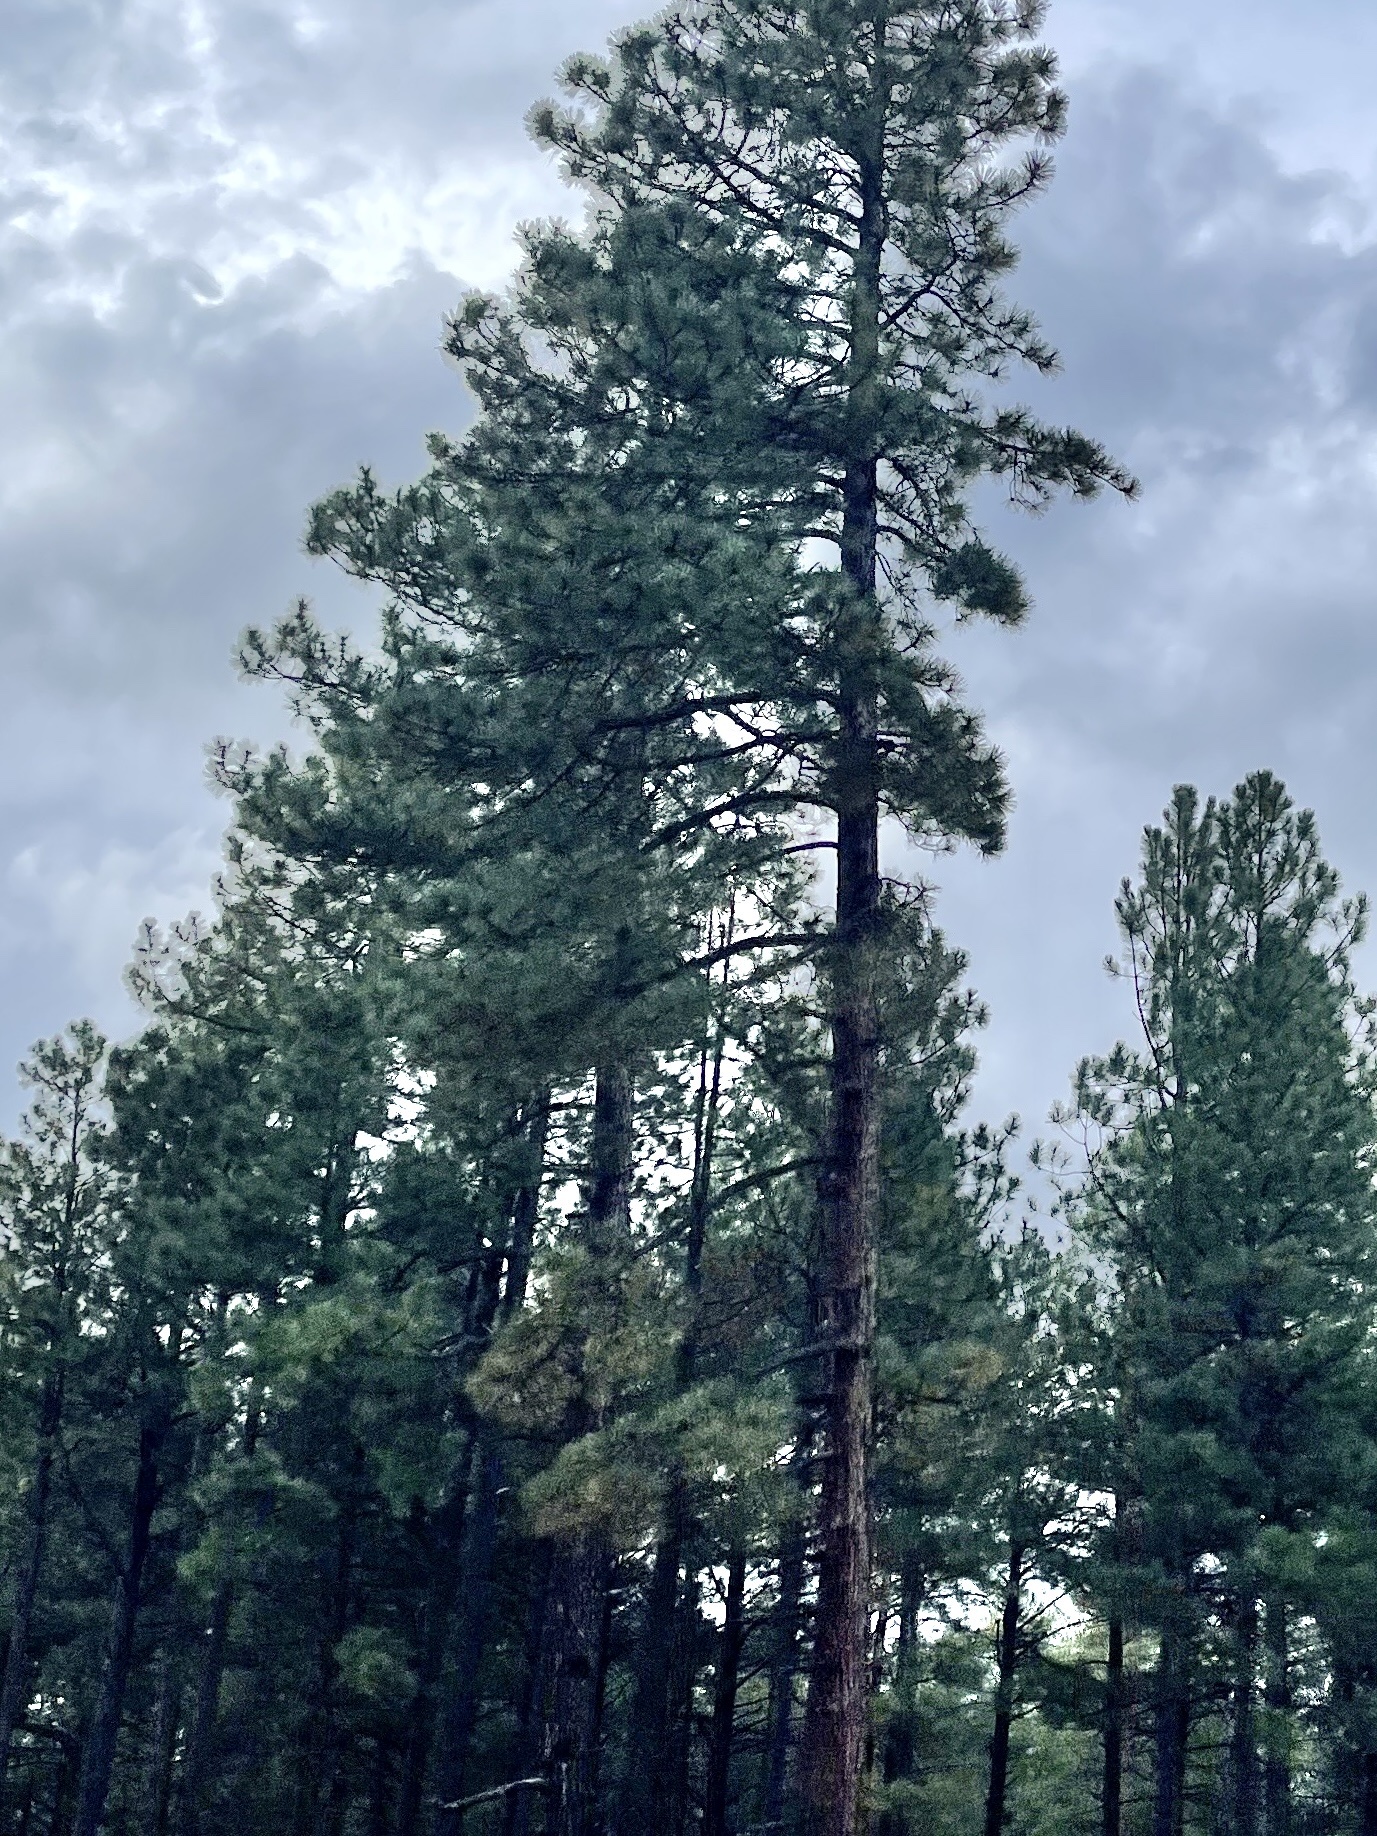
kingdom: Plantae
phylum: Tracheophyta
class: Pinopsida
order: Pinales
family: Pinaceae
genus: Pinus
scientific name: Pinus ponderosa
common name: Western yellow-pine
